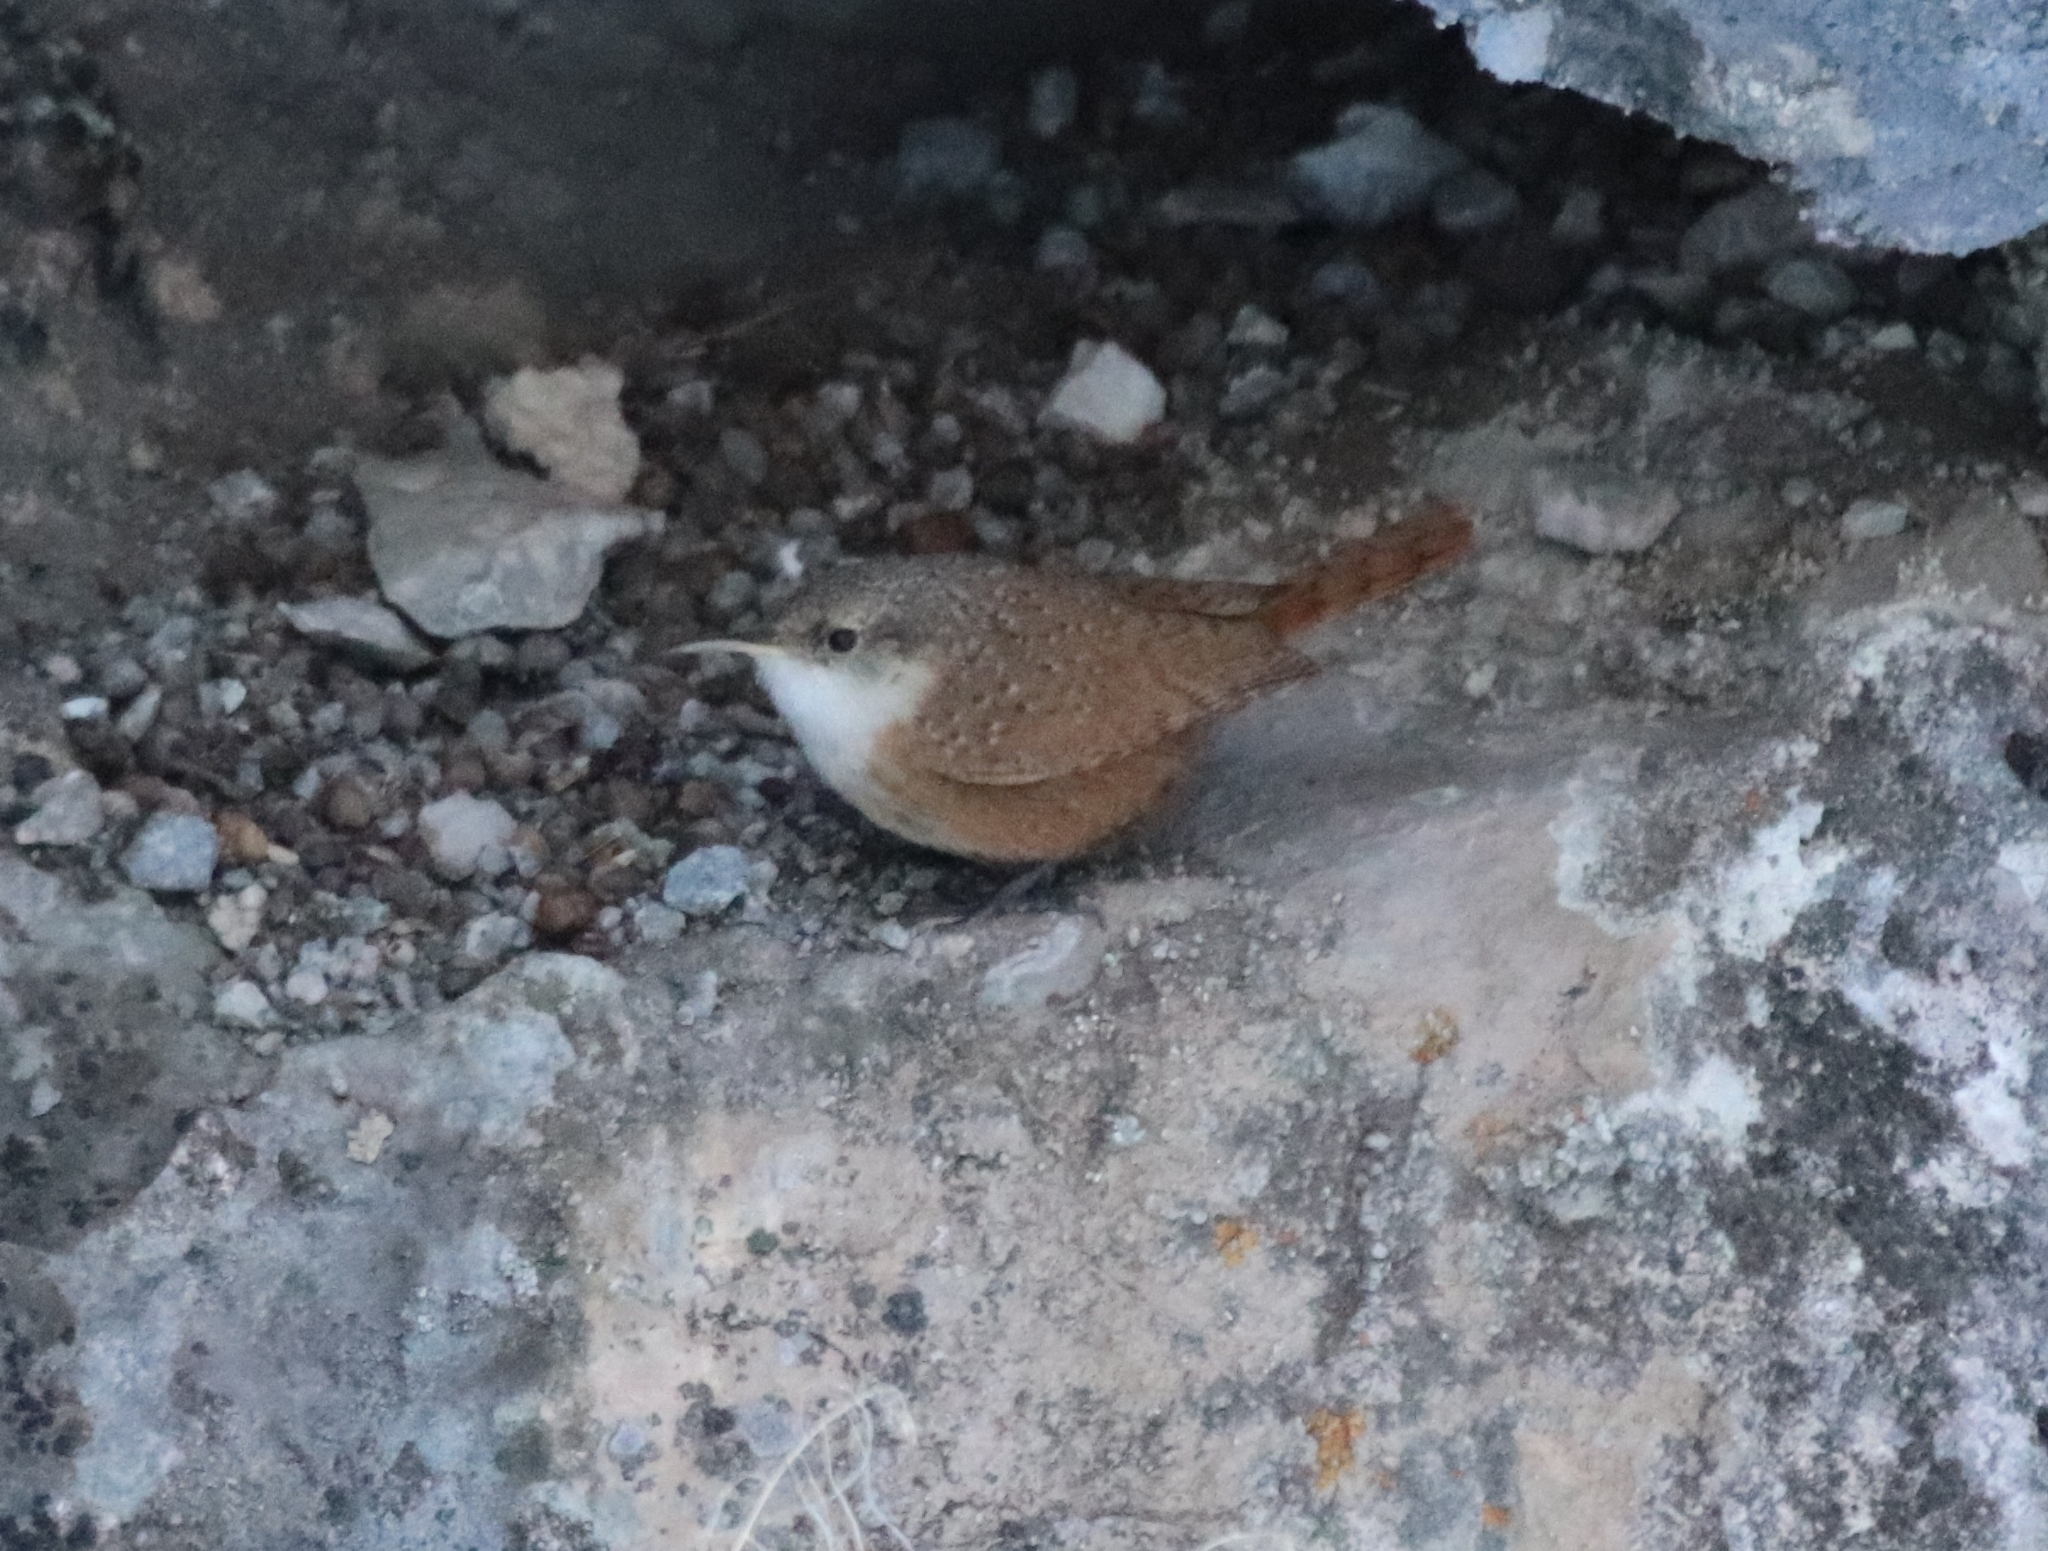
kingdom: Animalia
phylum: Chordata
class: Aves
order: Passeriformes
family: Troglodytidae
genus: Catherpes
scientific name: Catherpes mexicanus
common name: Canyon wren
